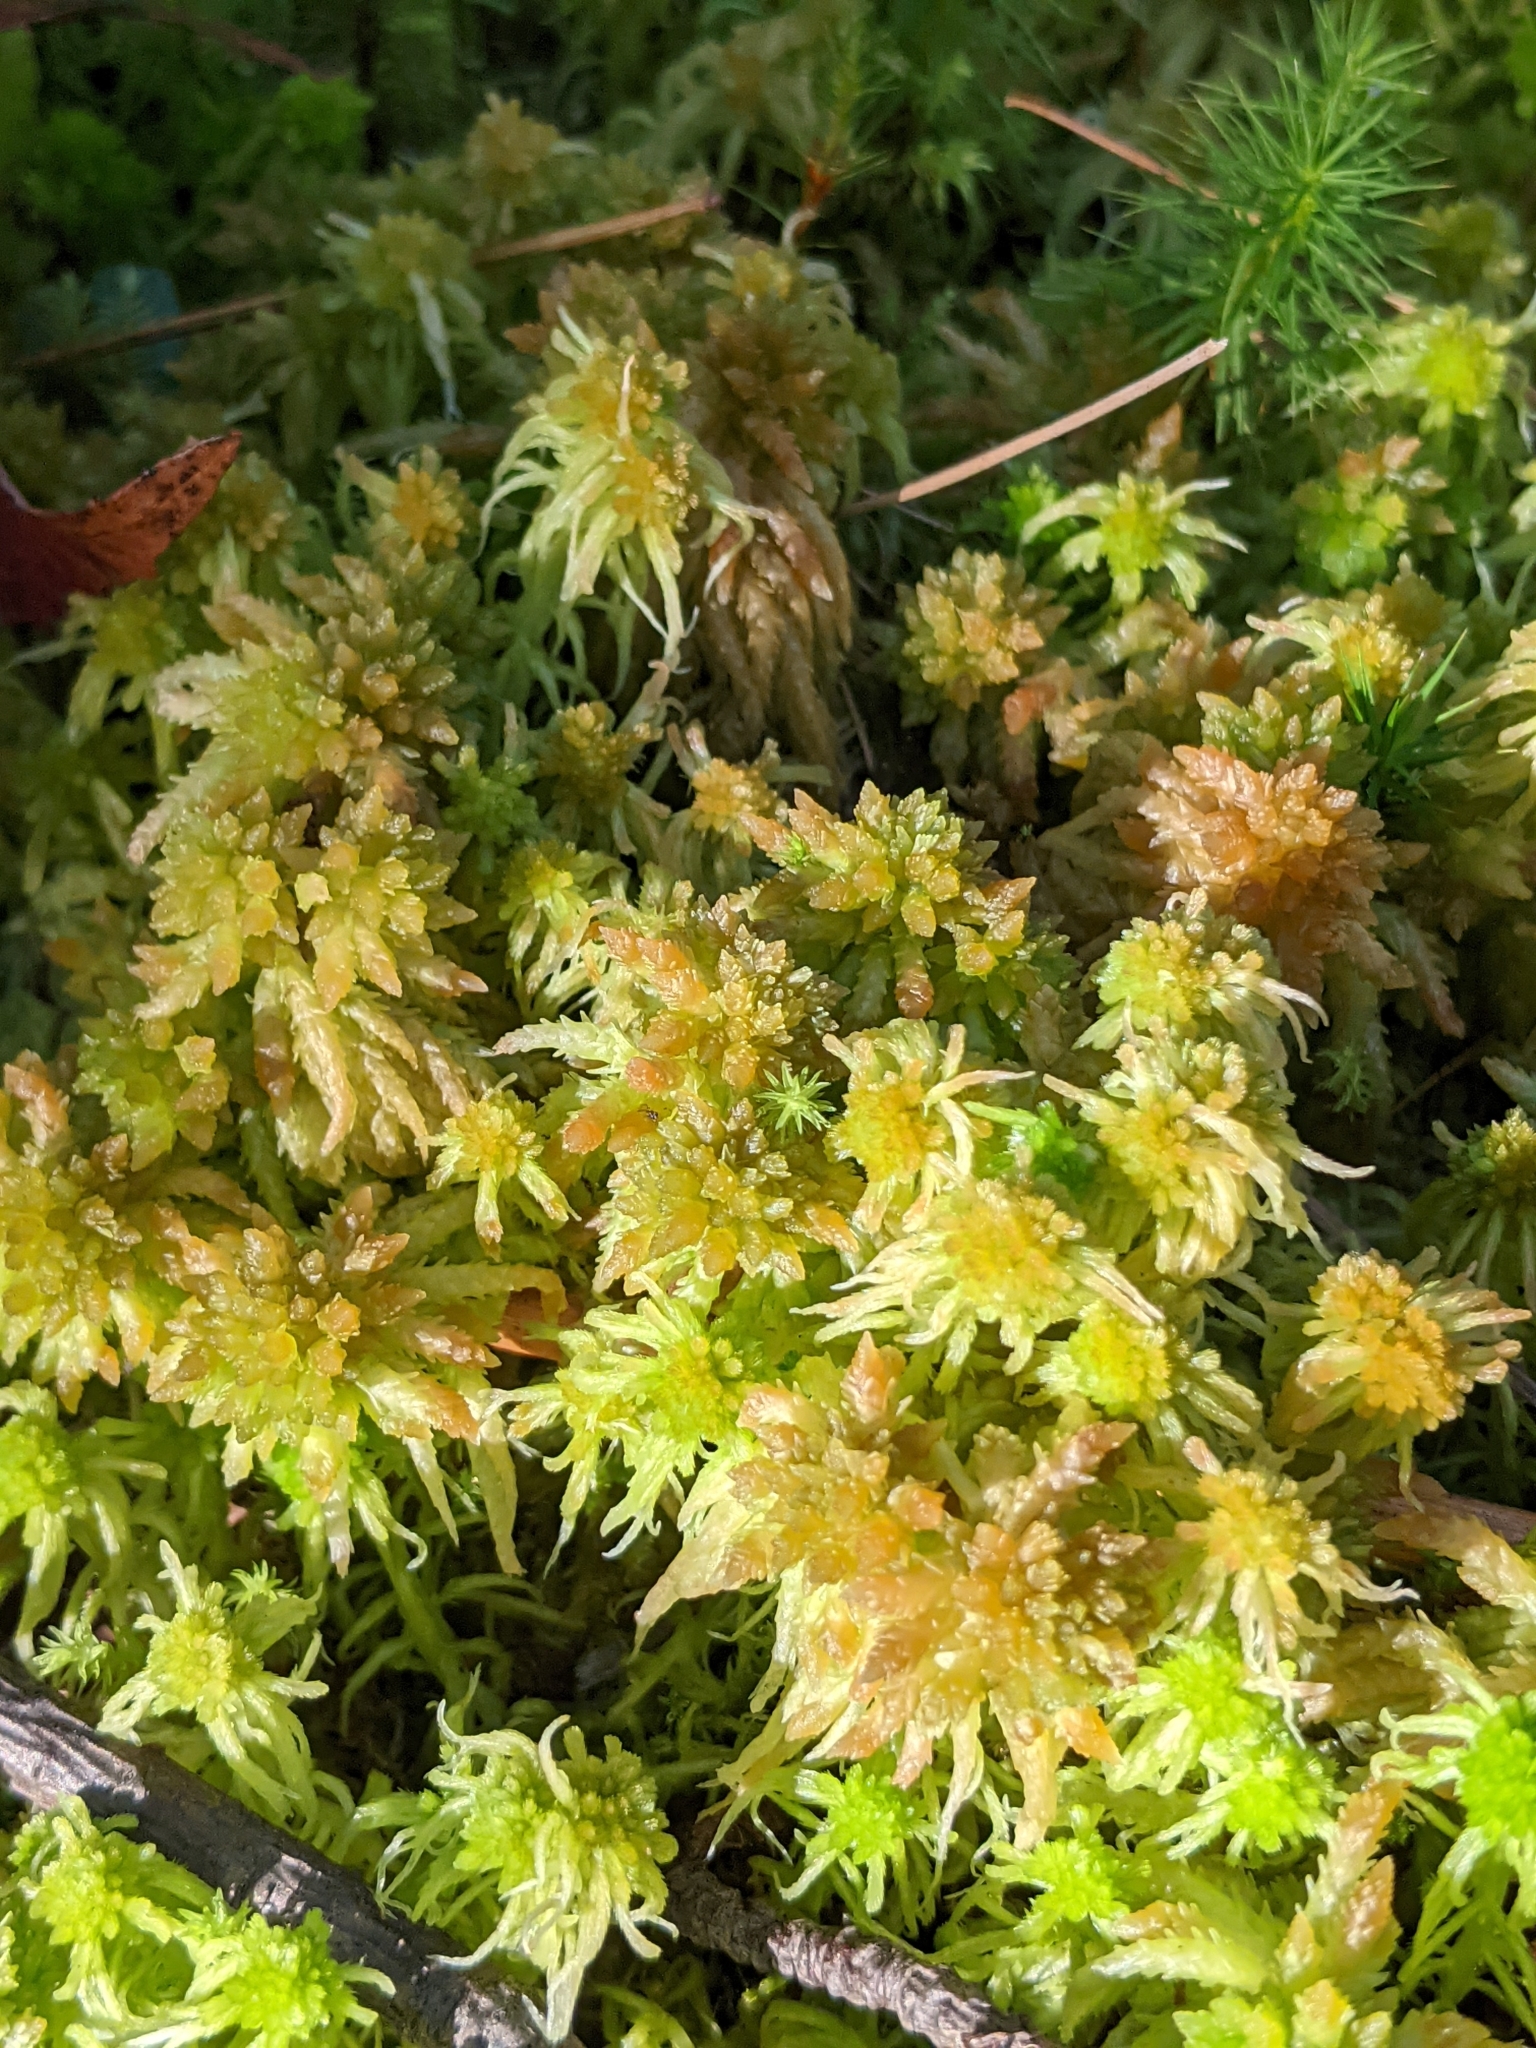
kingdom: Plantae
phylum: Bryophyta
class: Sphagnopsida
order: Sphagnales
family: Sphagnaceae
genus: Sphagnum
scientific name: Sphagnum palustre
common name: Blunt-leaved bog-moss
